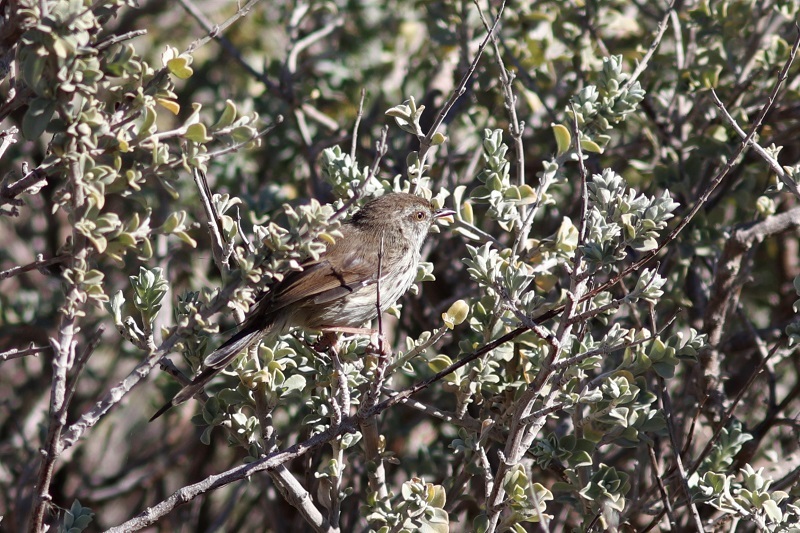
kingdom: Animalia
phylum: Chordata
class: Aves
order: Passeriformes
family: Cisticolidae
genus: Prinia
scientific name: Prinia maculosa
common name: Karoo prinia
